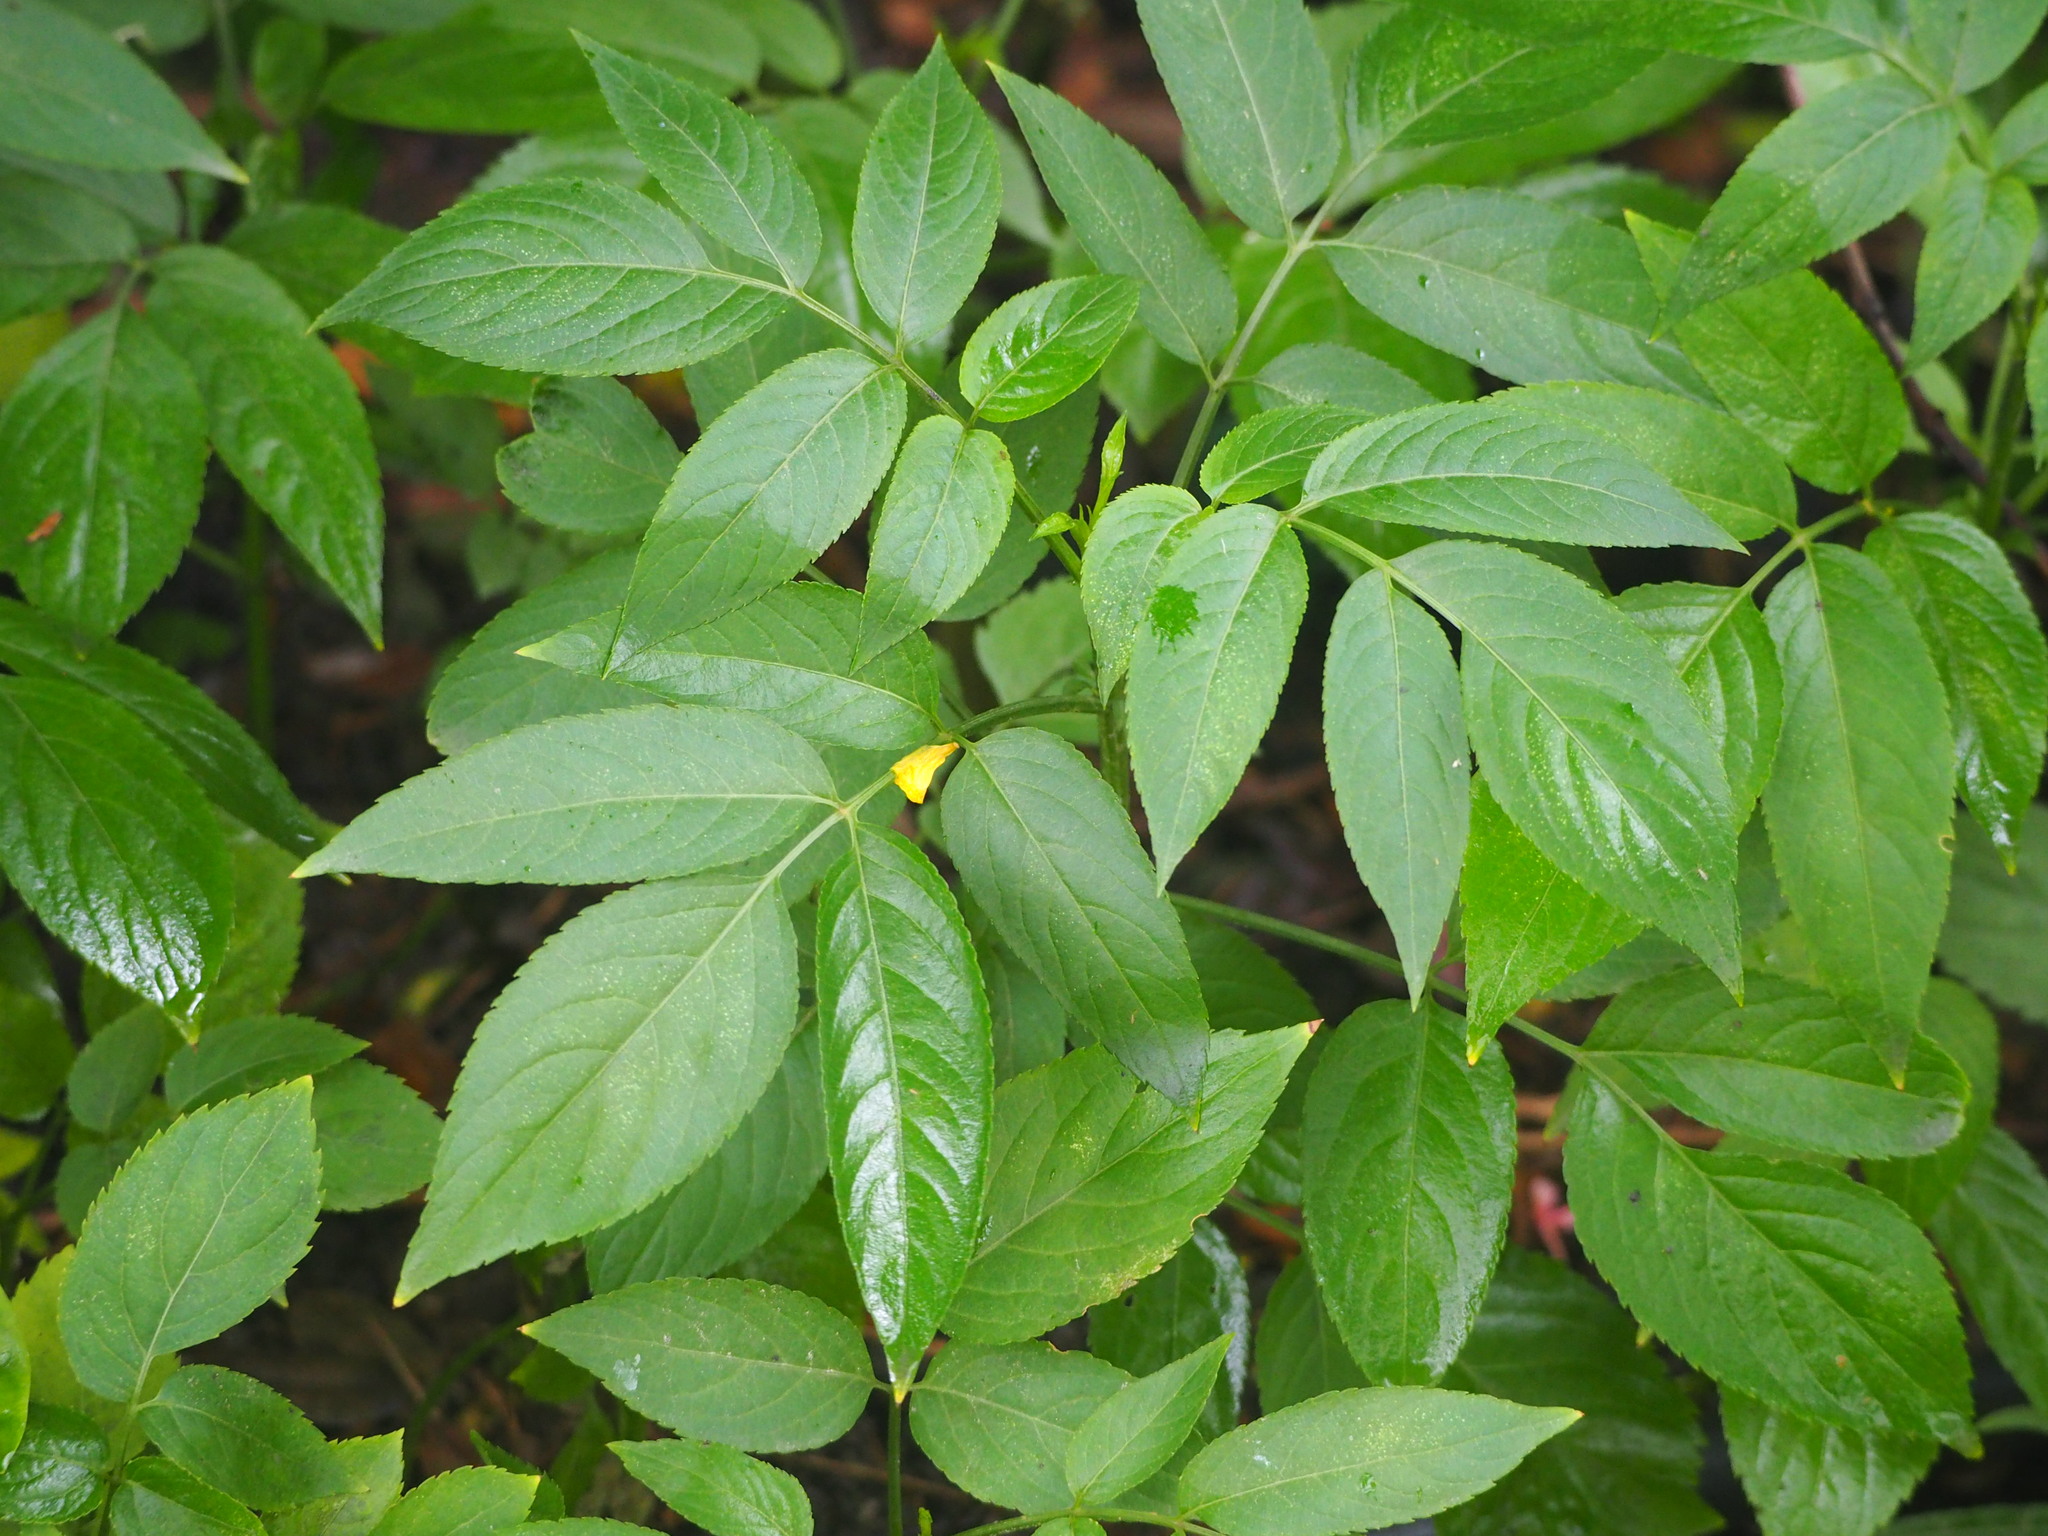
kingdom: Plantae
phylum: Tracheophyta
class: Magnoliopsida
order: Dipsacales
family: Viburnaceae
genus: Sambucus
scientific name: Sambucus javanica
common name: Chinese elder
